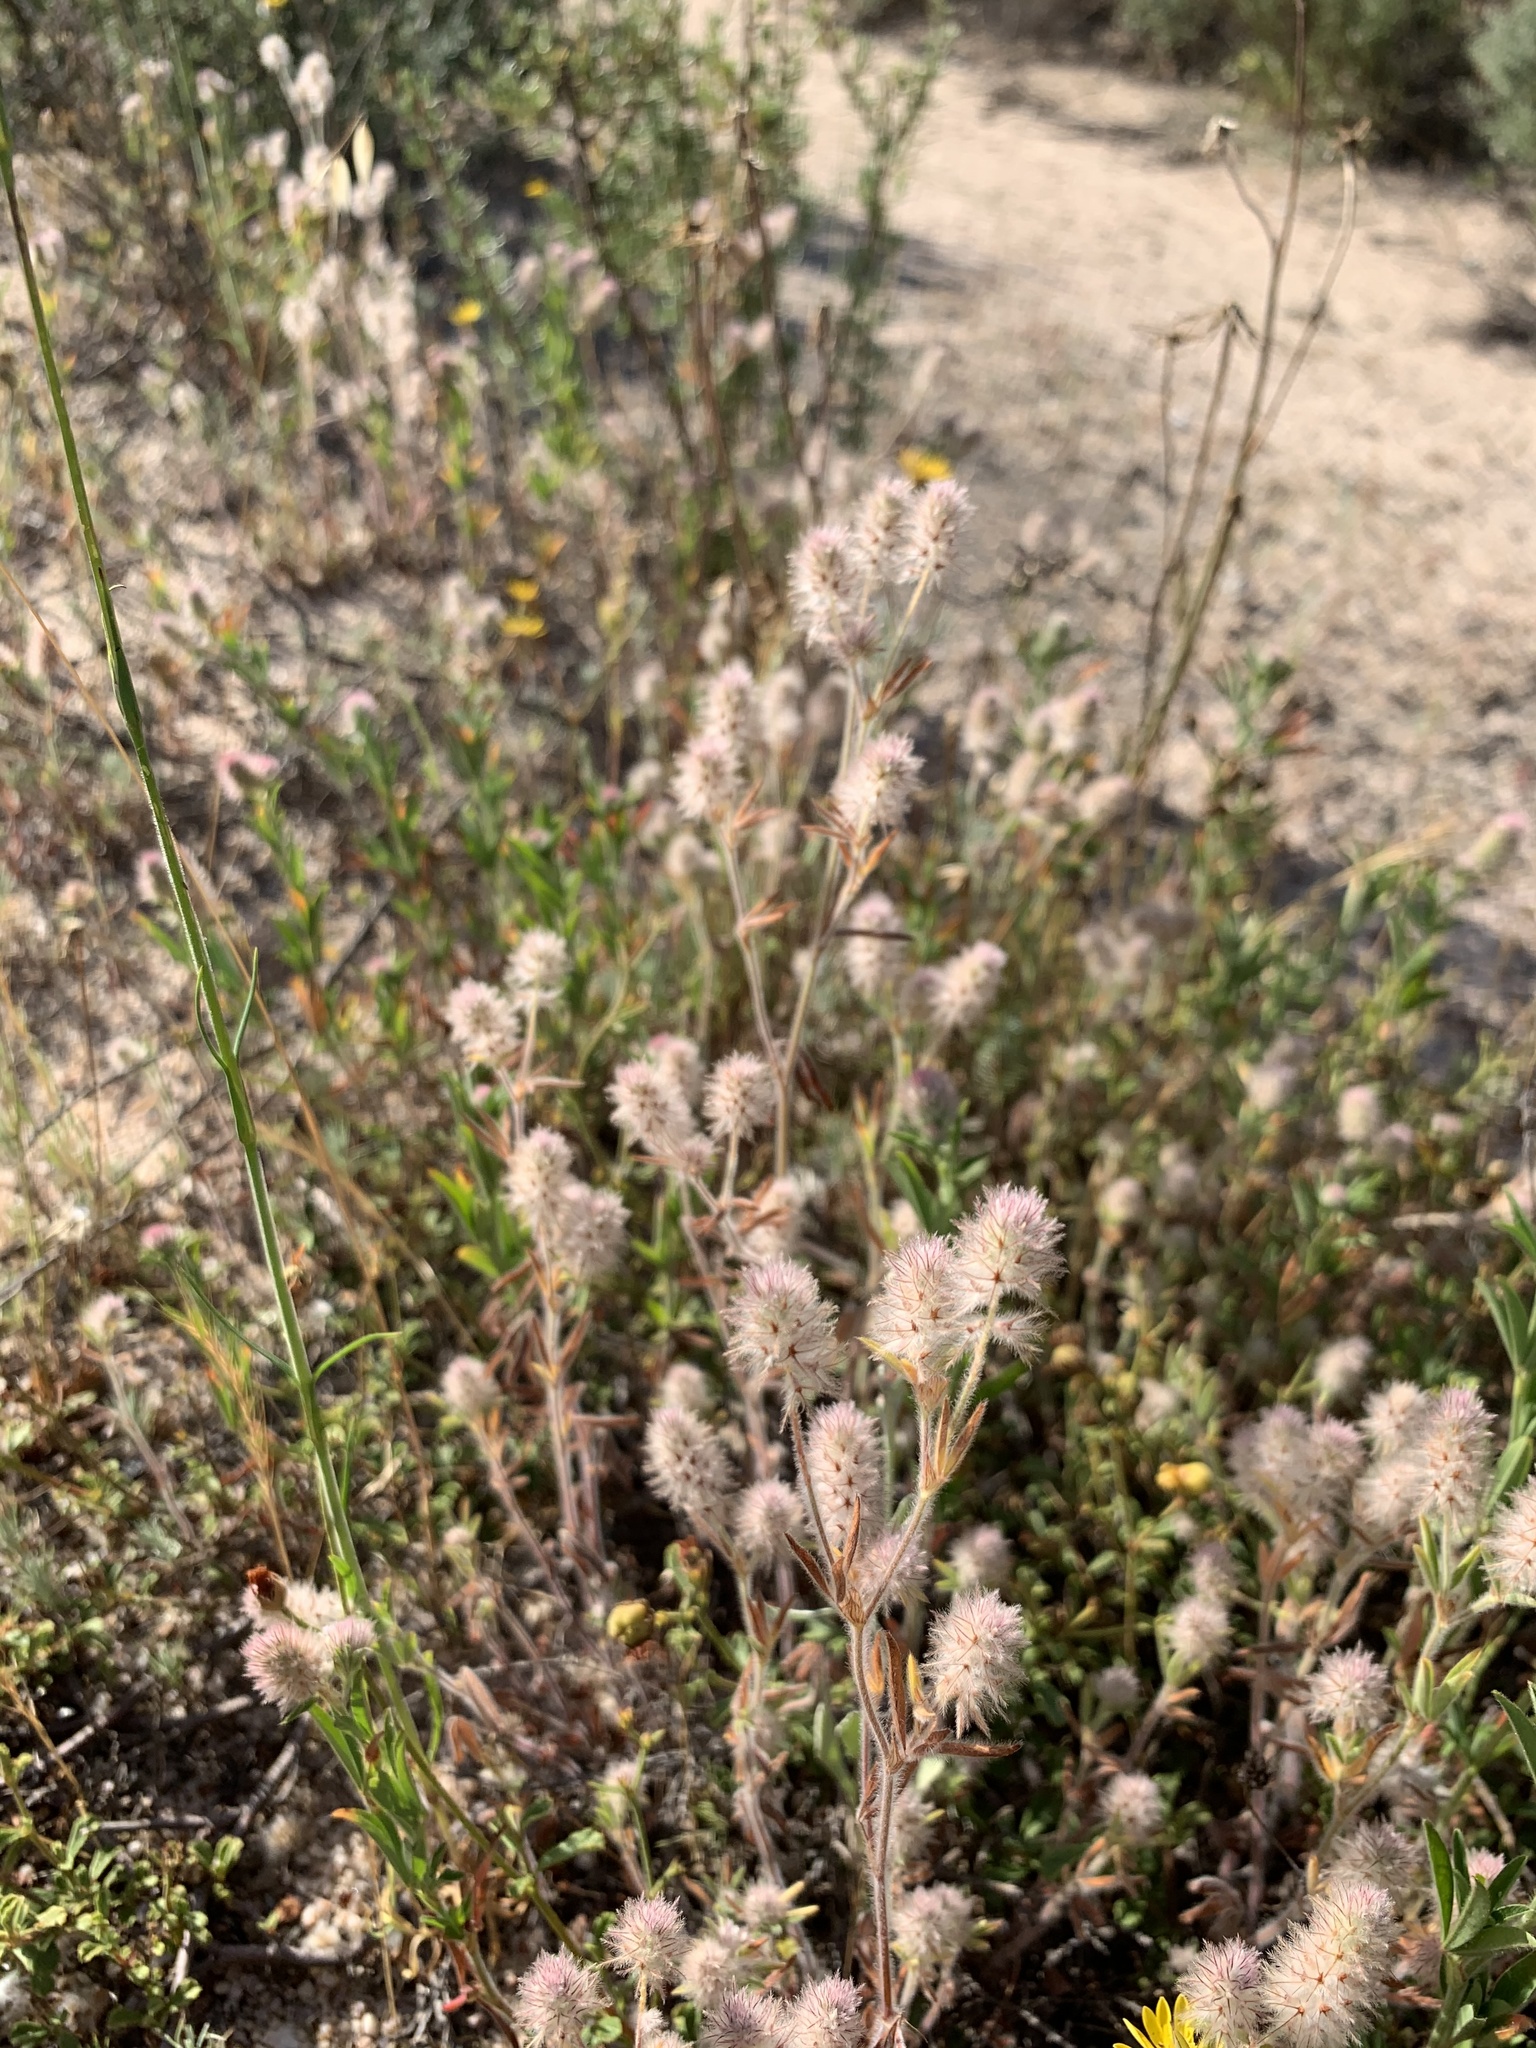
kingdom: Plantae
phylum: Tracheophyta
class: Magnoliopsida
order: Fabales
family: Fabaceae
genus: Trifolium
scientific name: Trifolium arvense
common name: Hare's-foot clover
